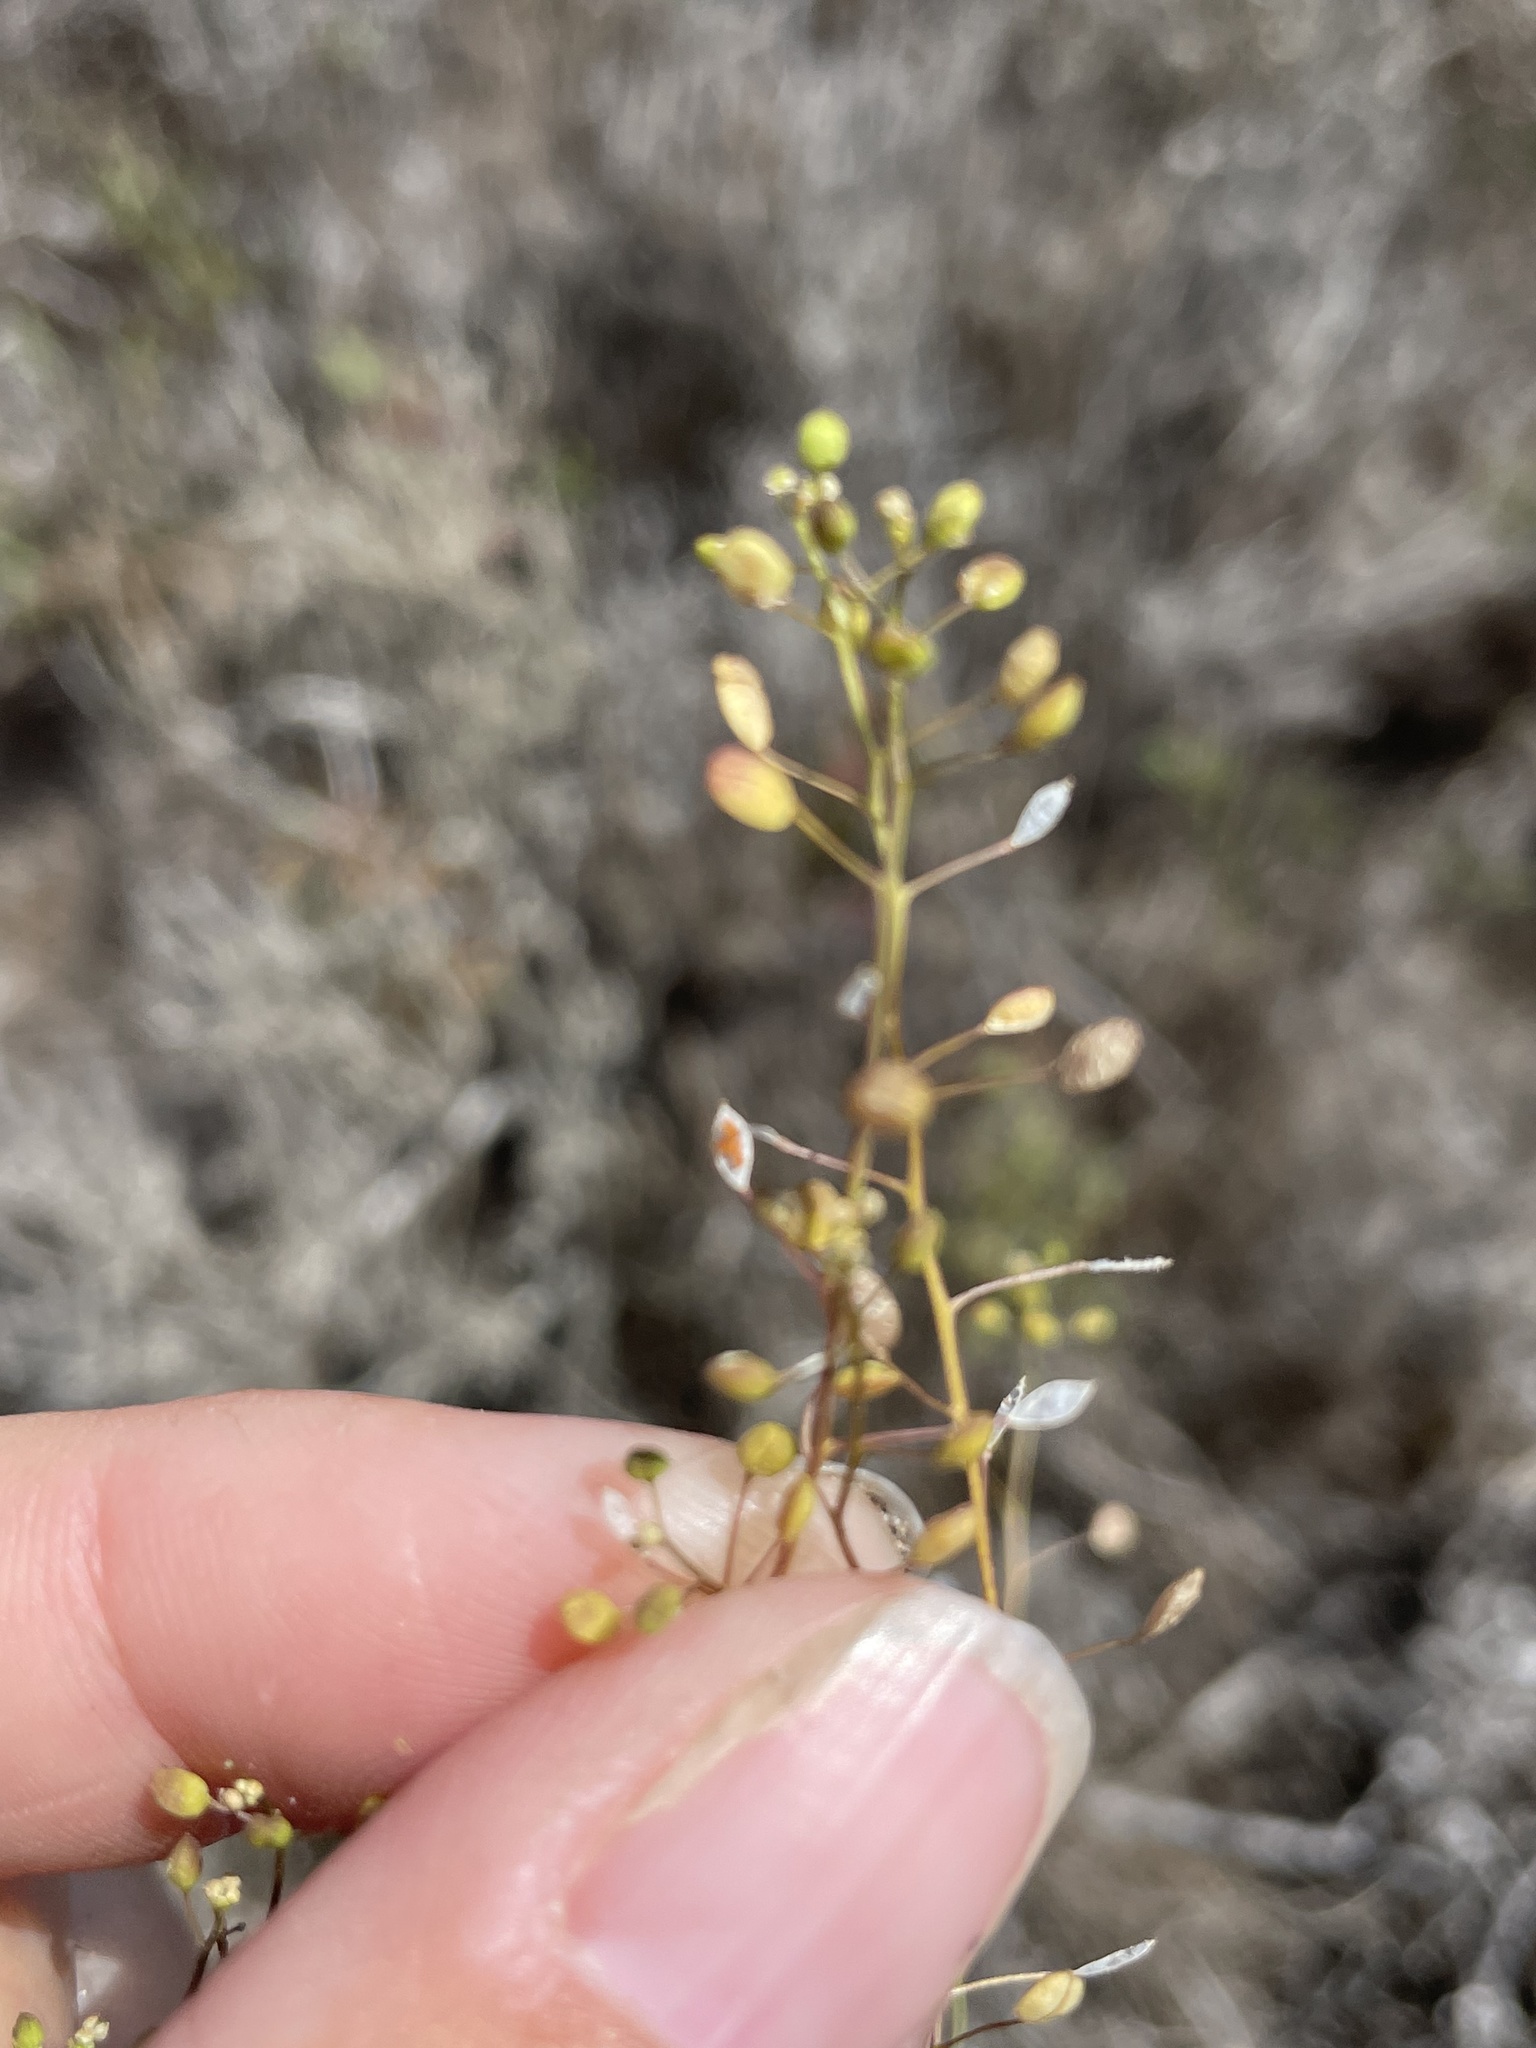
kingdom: Plantae
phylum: Tracheophyta
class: Magnoliopsida
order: Brassicales
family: Brassicaceae
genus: Hornungia
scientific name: Hornungia procumbens
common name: Oval purse
